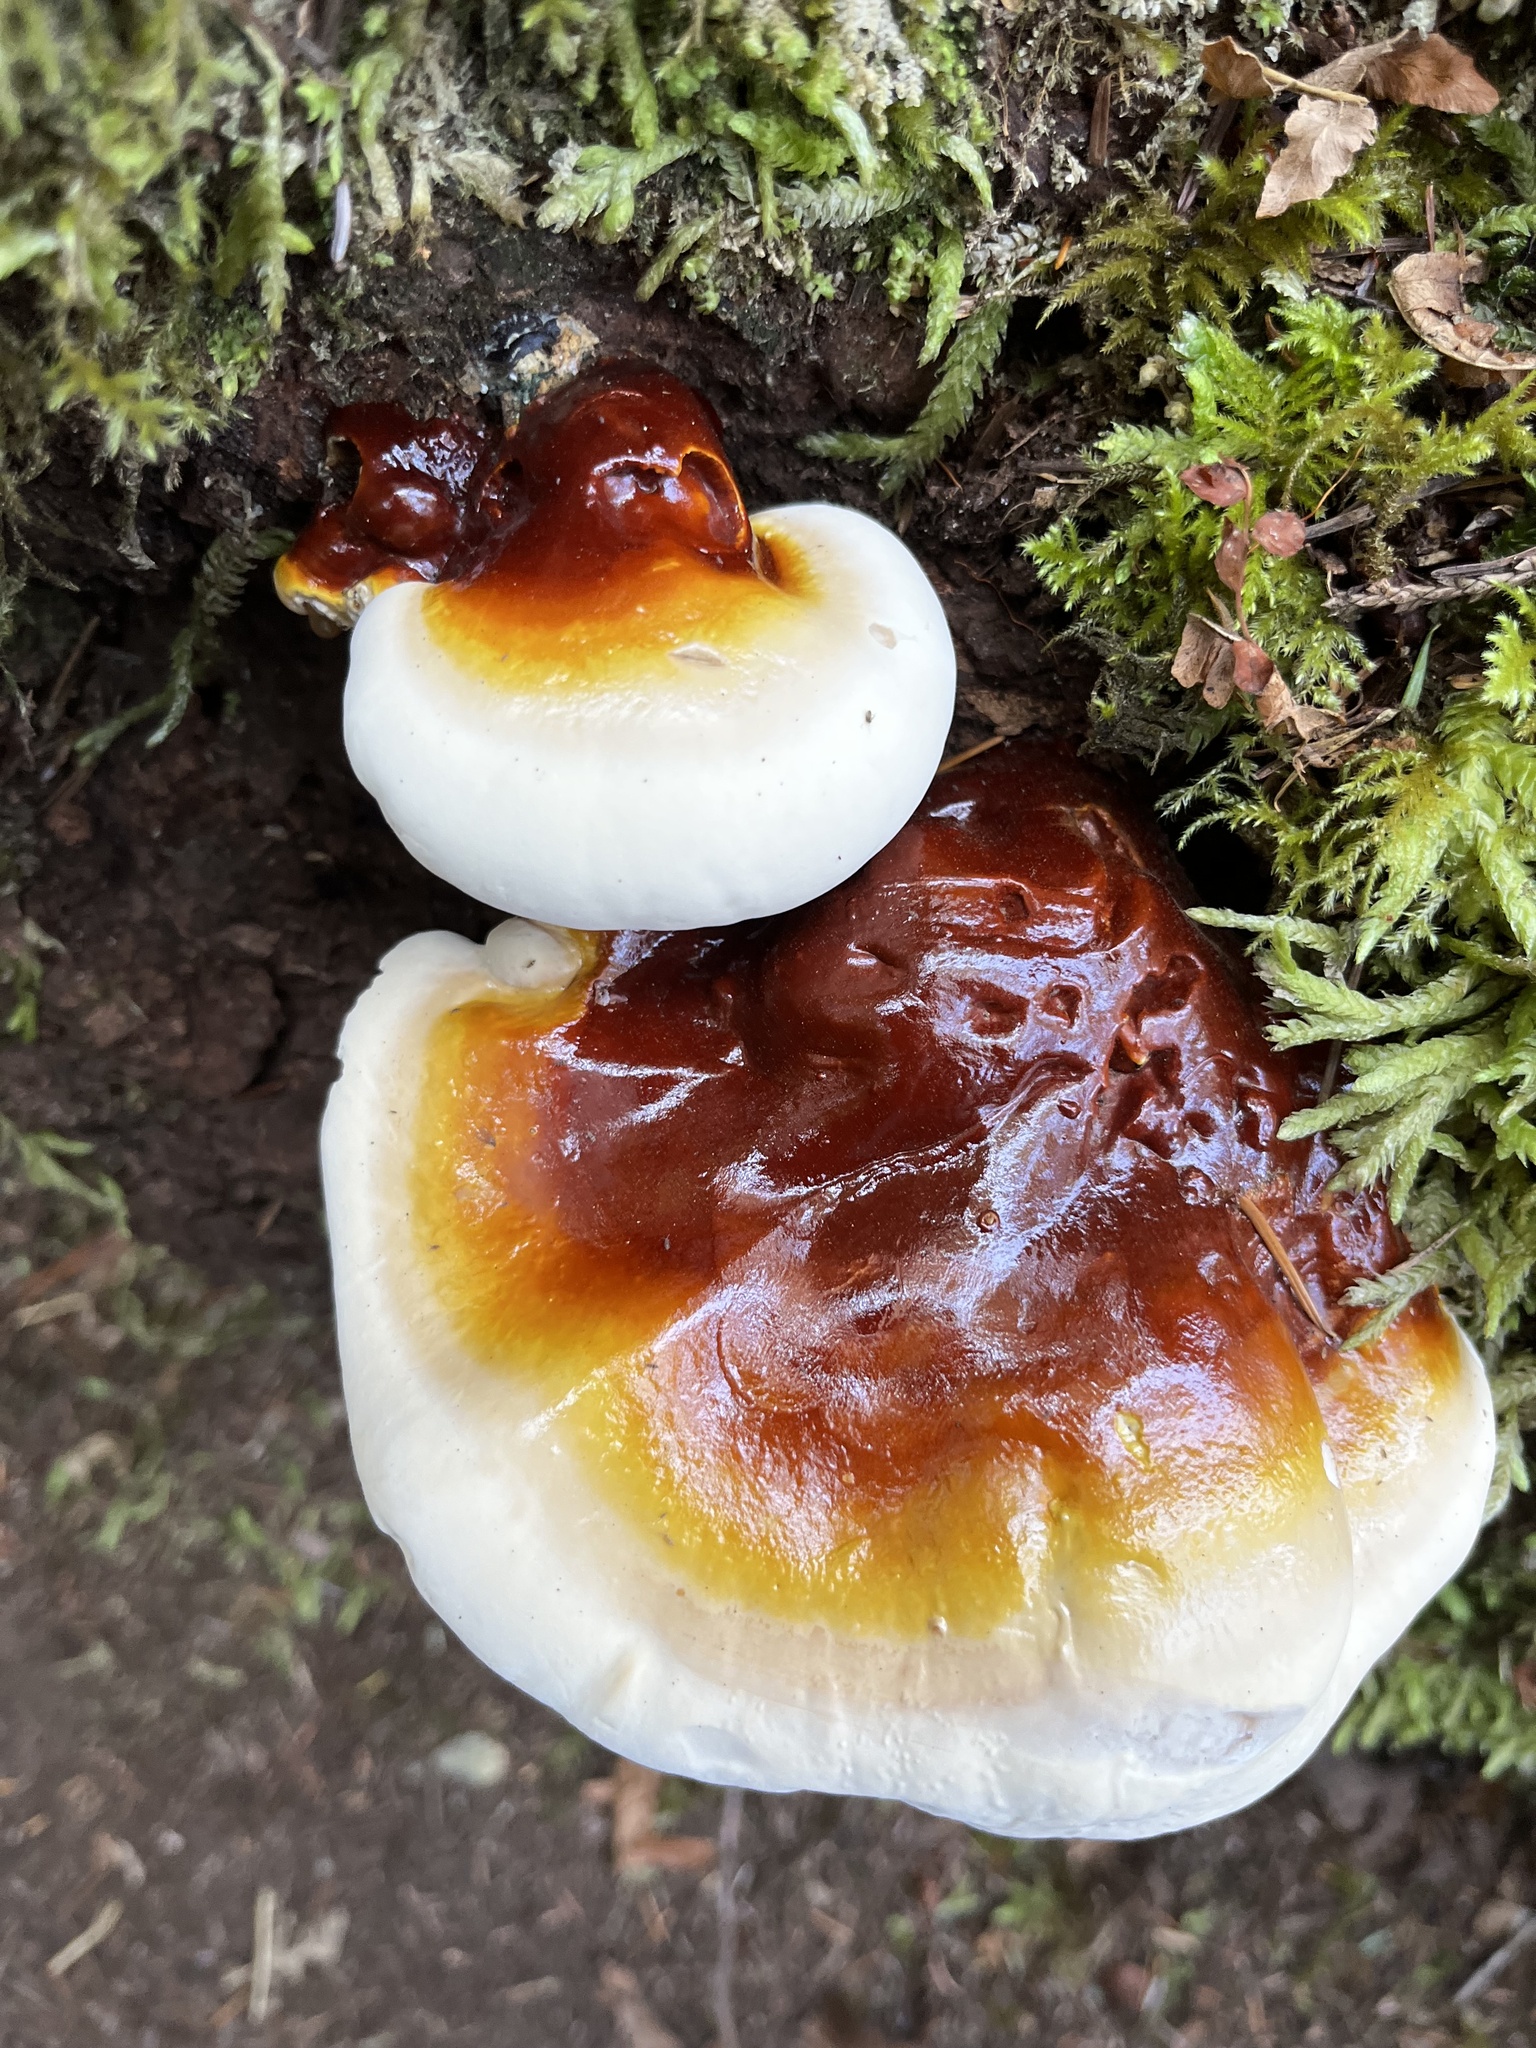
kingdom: Fungi
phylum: Basidiomycota
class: Agaricomycetes
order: Polyporales
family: Polyporaceae
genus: Ganoderma
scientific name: Ganoderma oregonense
